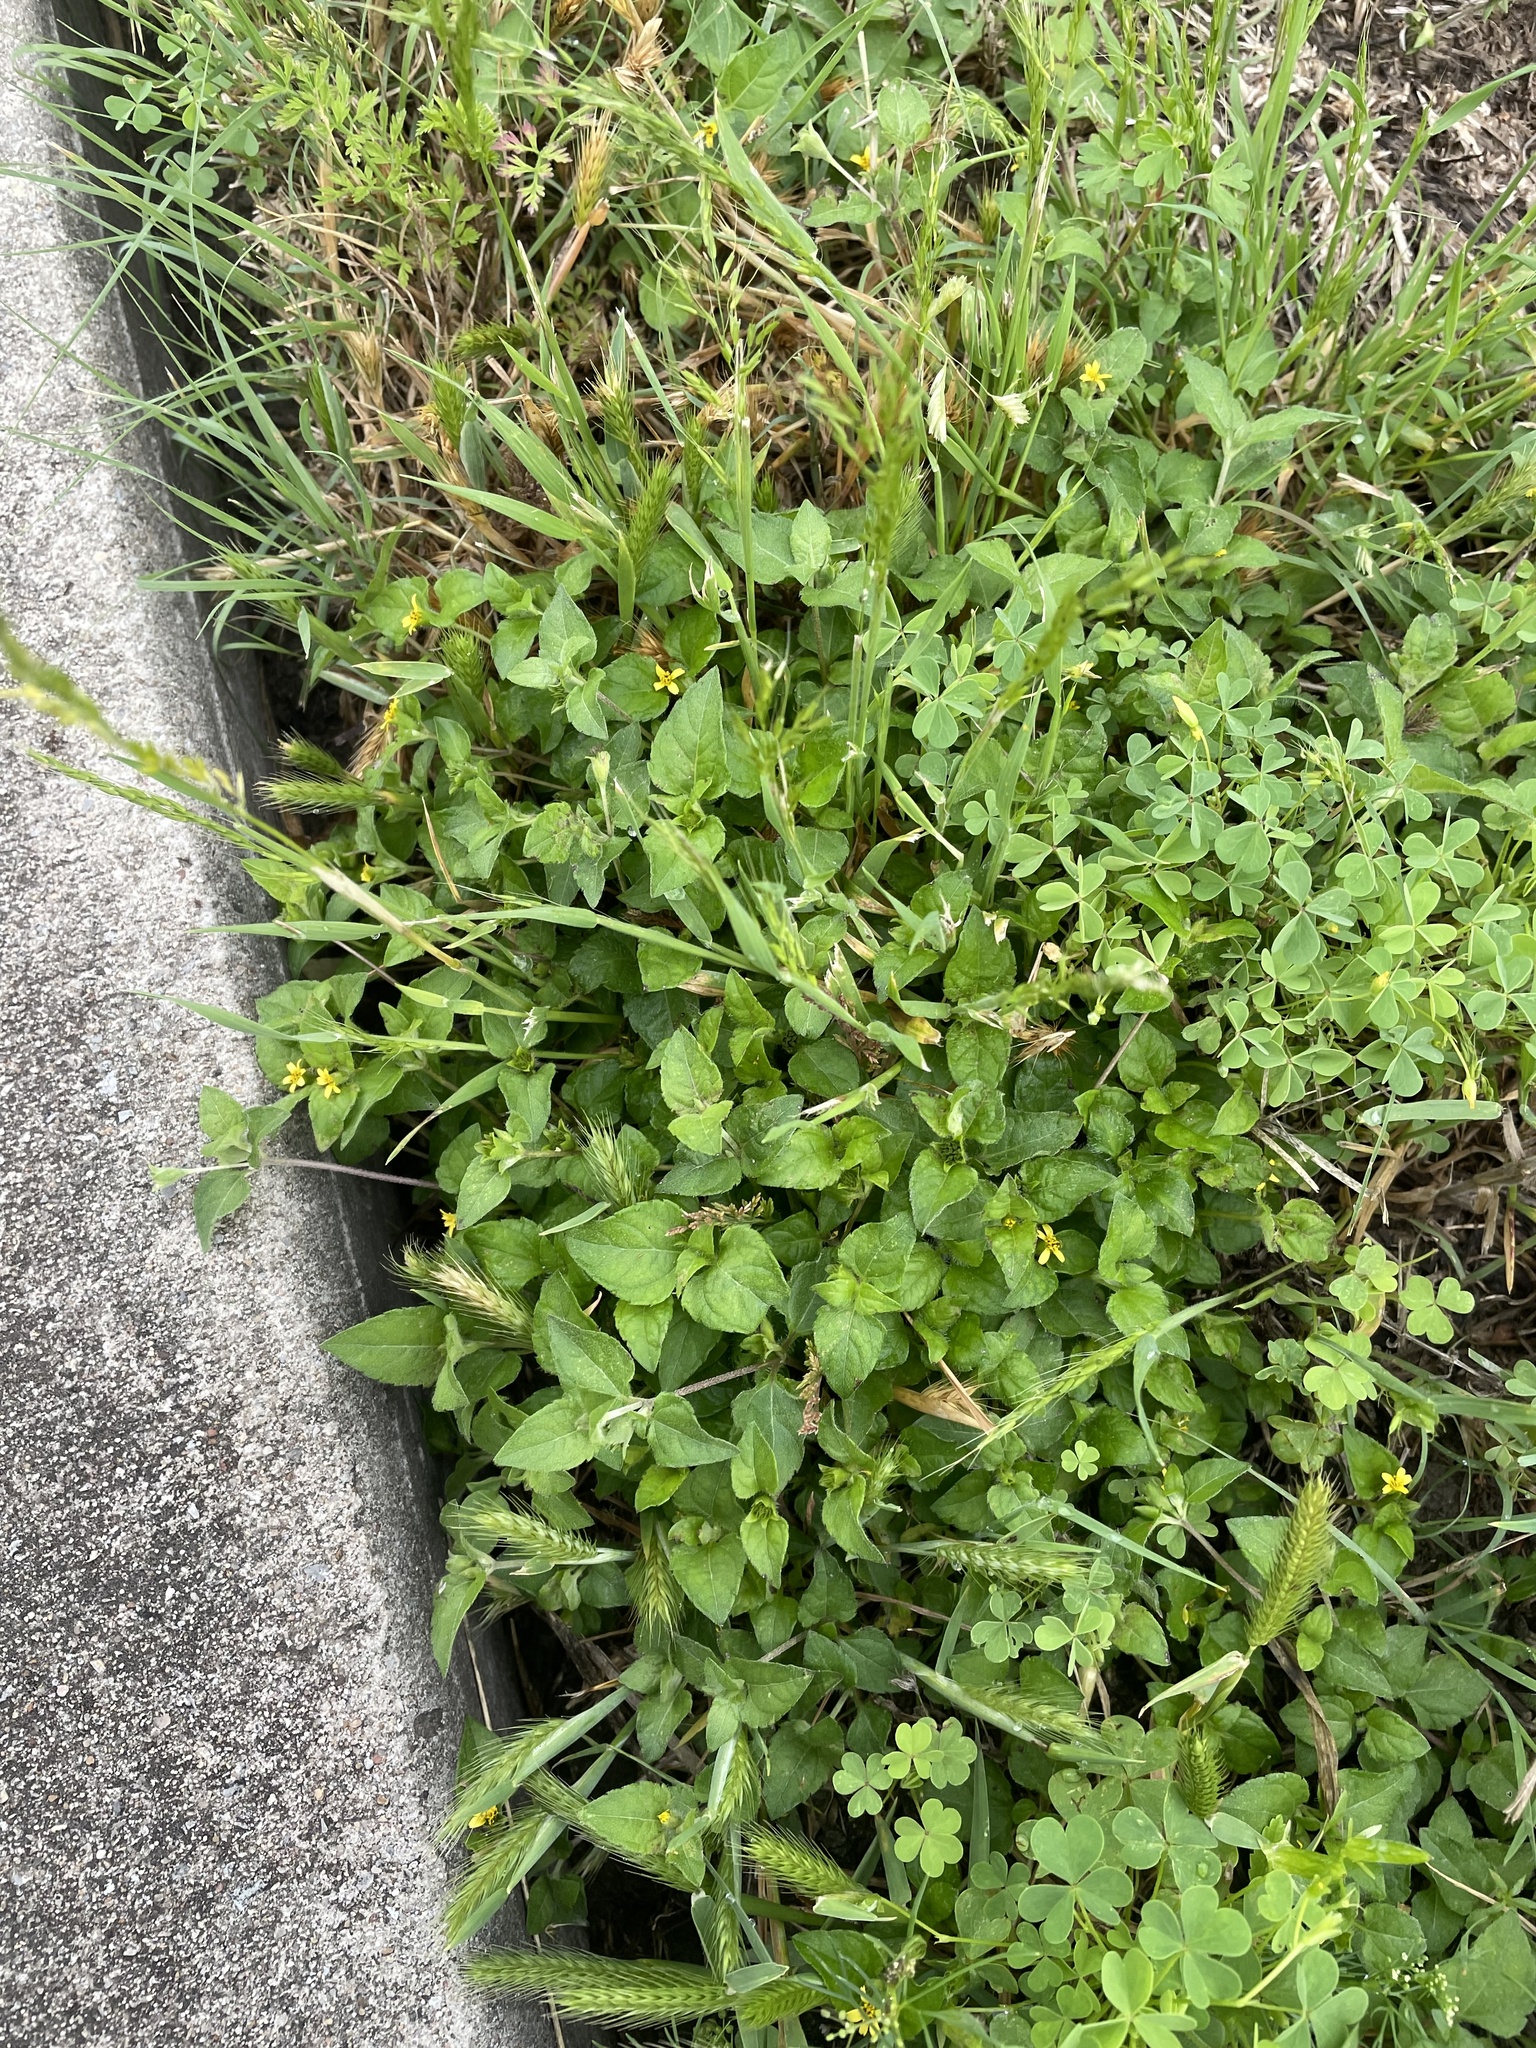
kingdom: Plantae
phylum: Tracheophyta
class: Magnoliopsida
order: Asterales
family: Asteraceae
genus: Calyptocarpus
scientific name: Calyptocarpus vialis
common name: Straggler daisy
